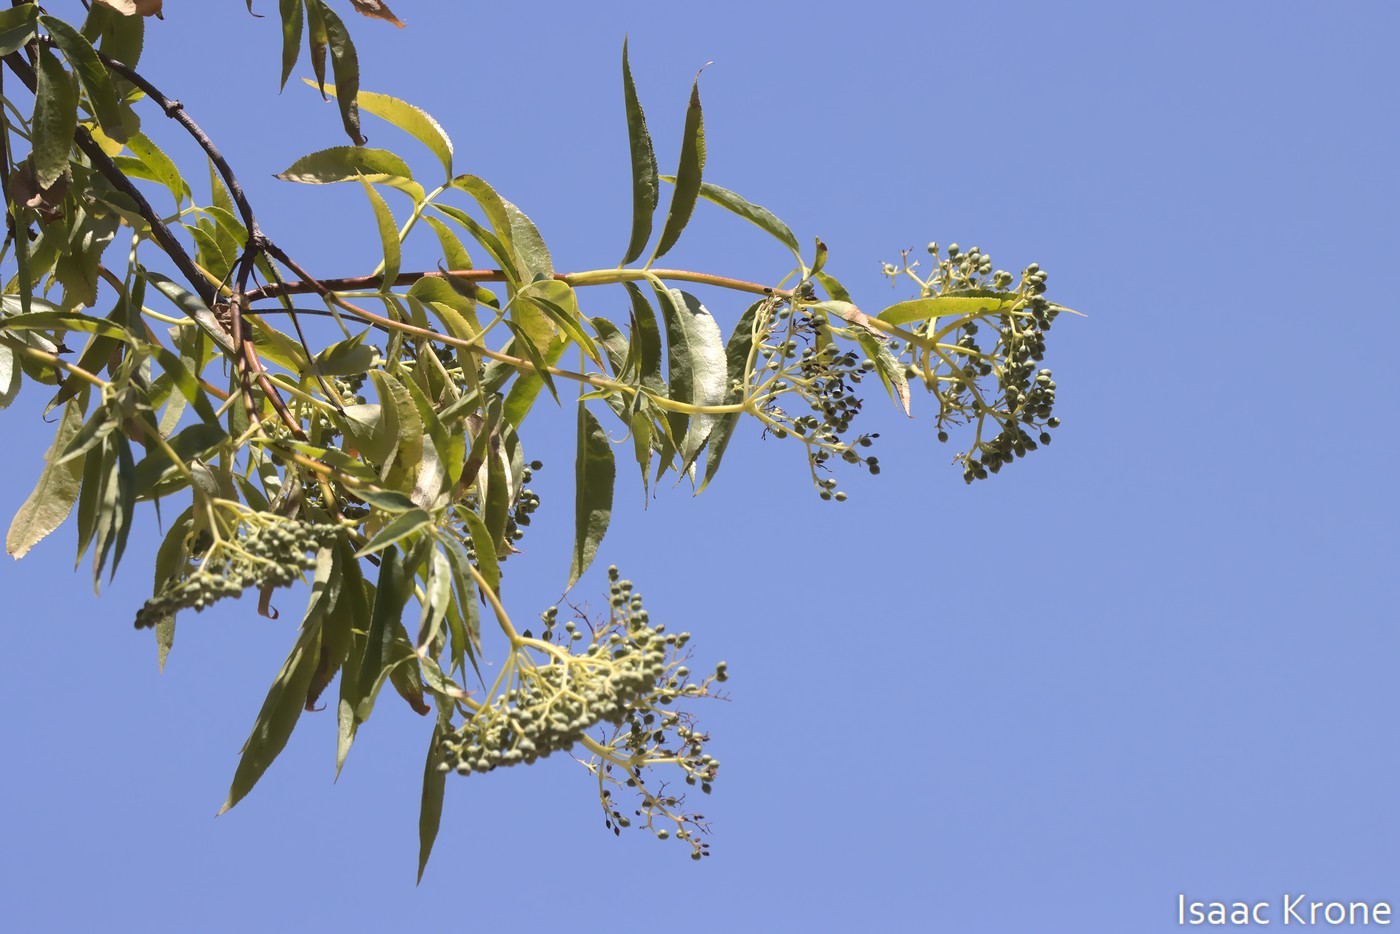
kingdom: Plantae
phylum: Tracheophyta
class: Magnoliopsida
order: Dipsacales
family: Viburnaceae
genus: Sambucus
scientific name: Sambucus cerulea
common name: Blue elder
